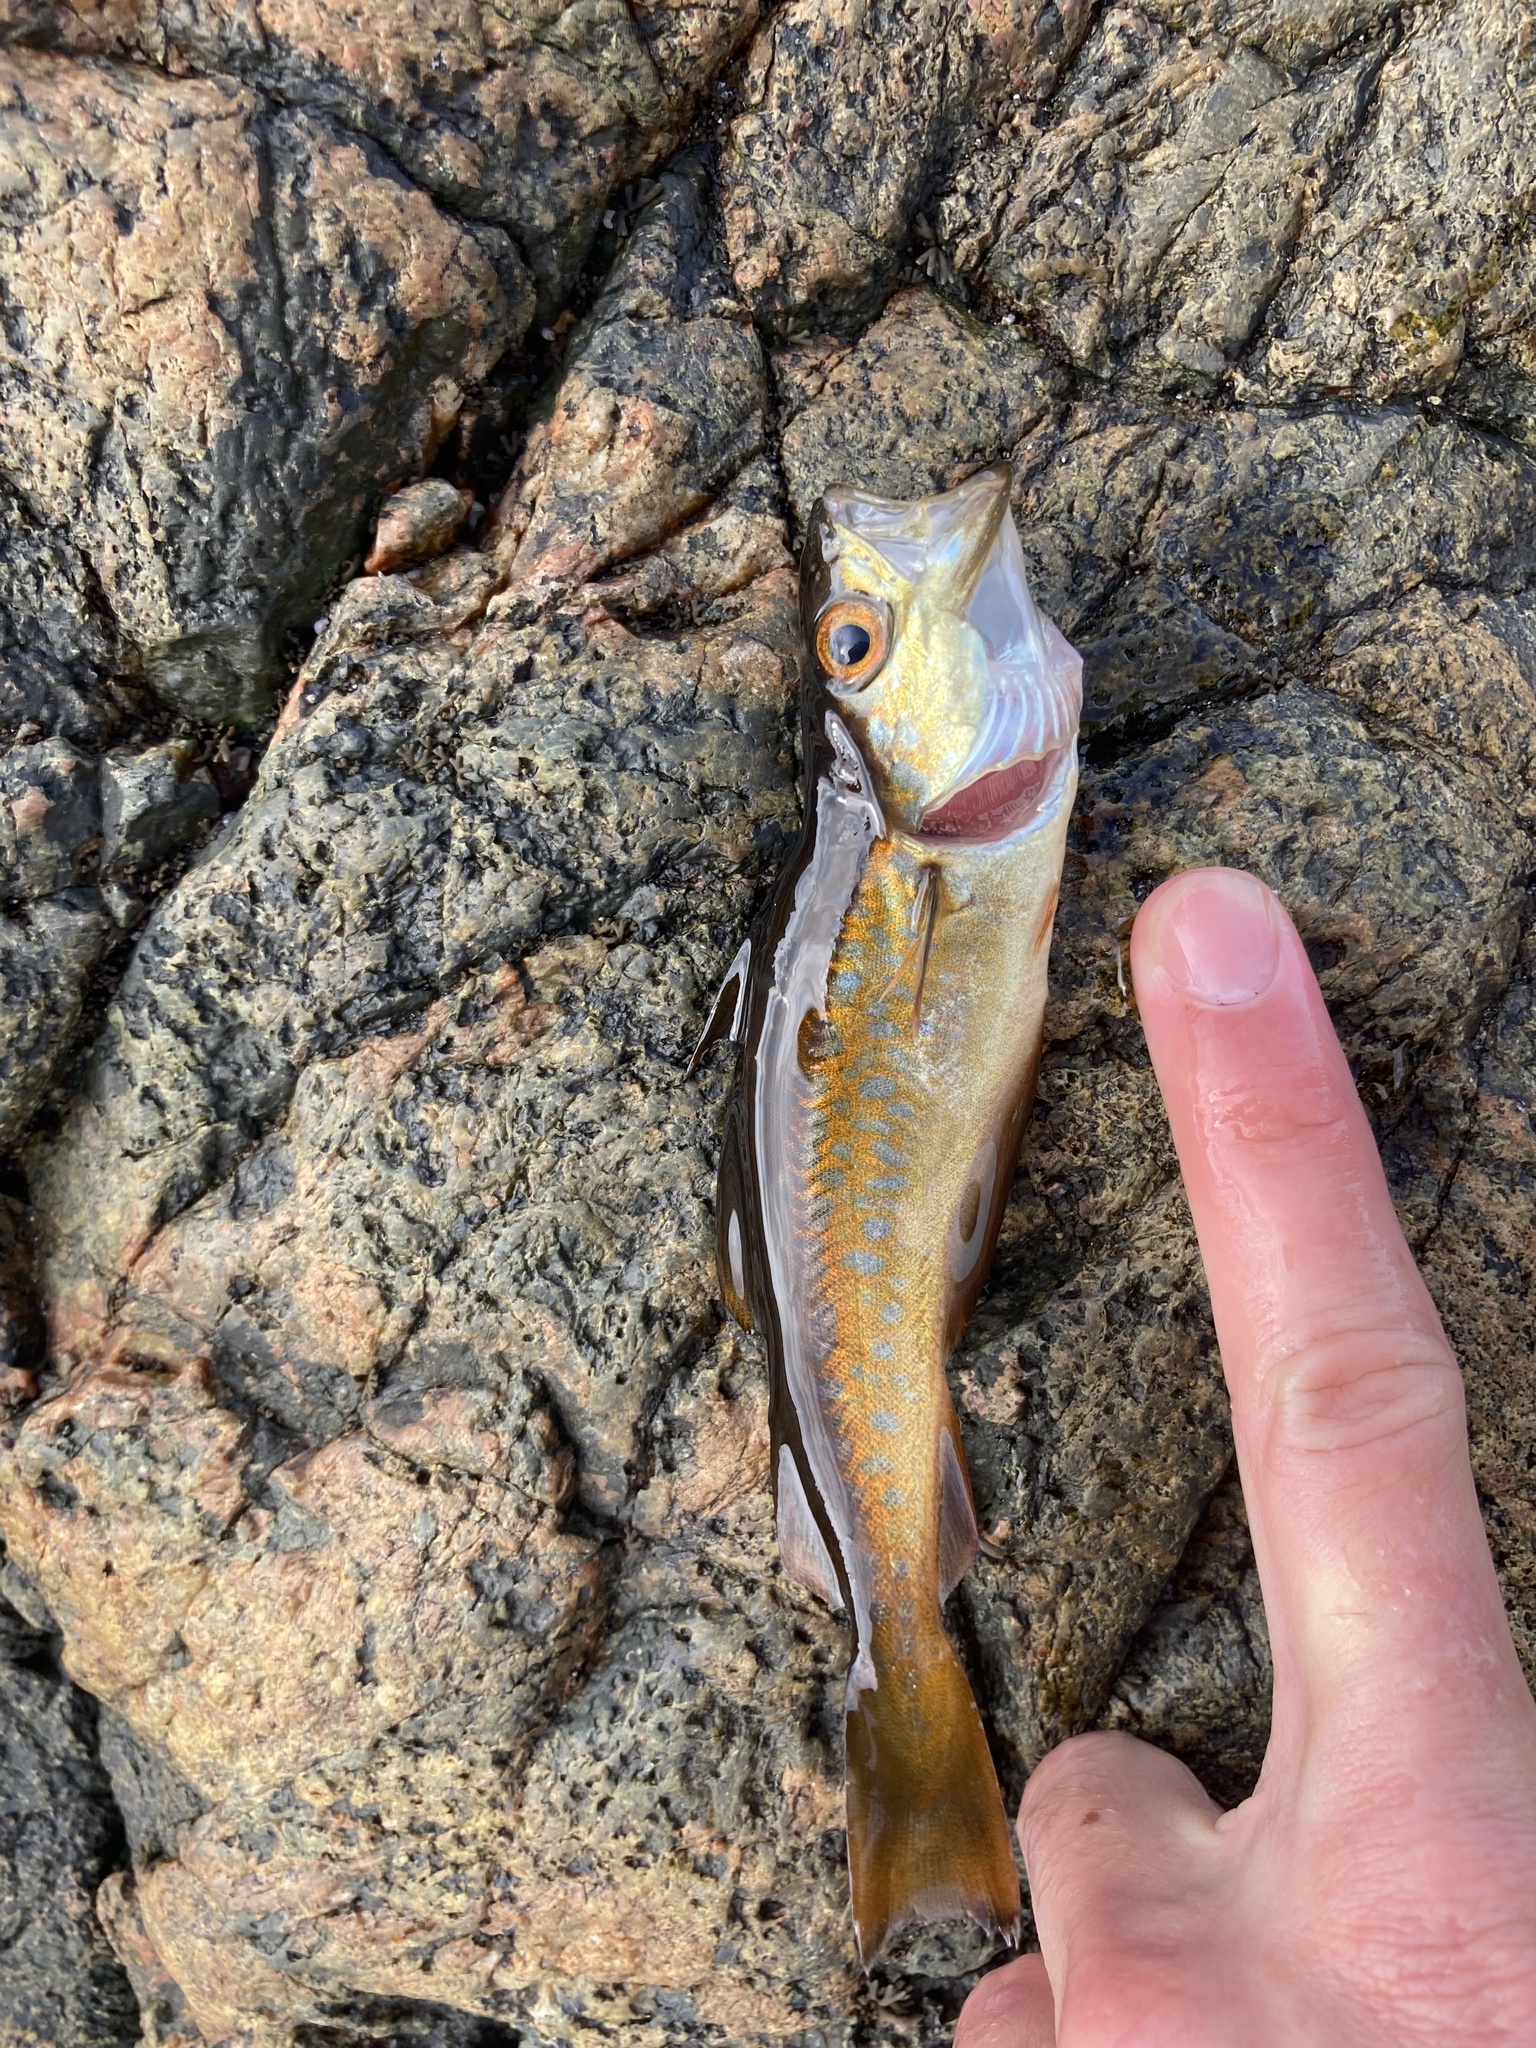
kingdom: Animalia
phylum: Chordata
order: Gadiformes
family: Gadidae
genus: Pollachius
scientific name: Pollachius pollachius
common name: Pollack
